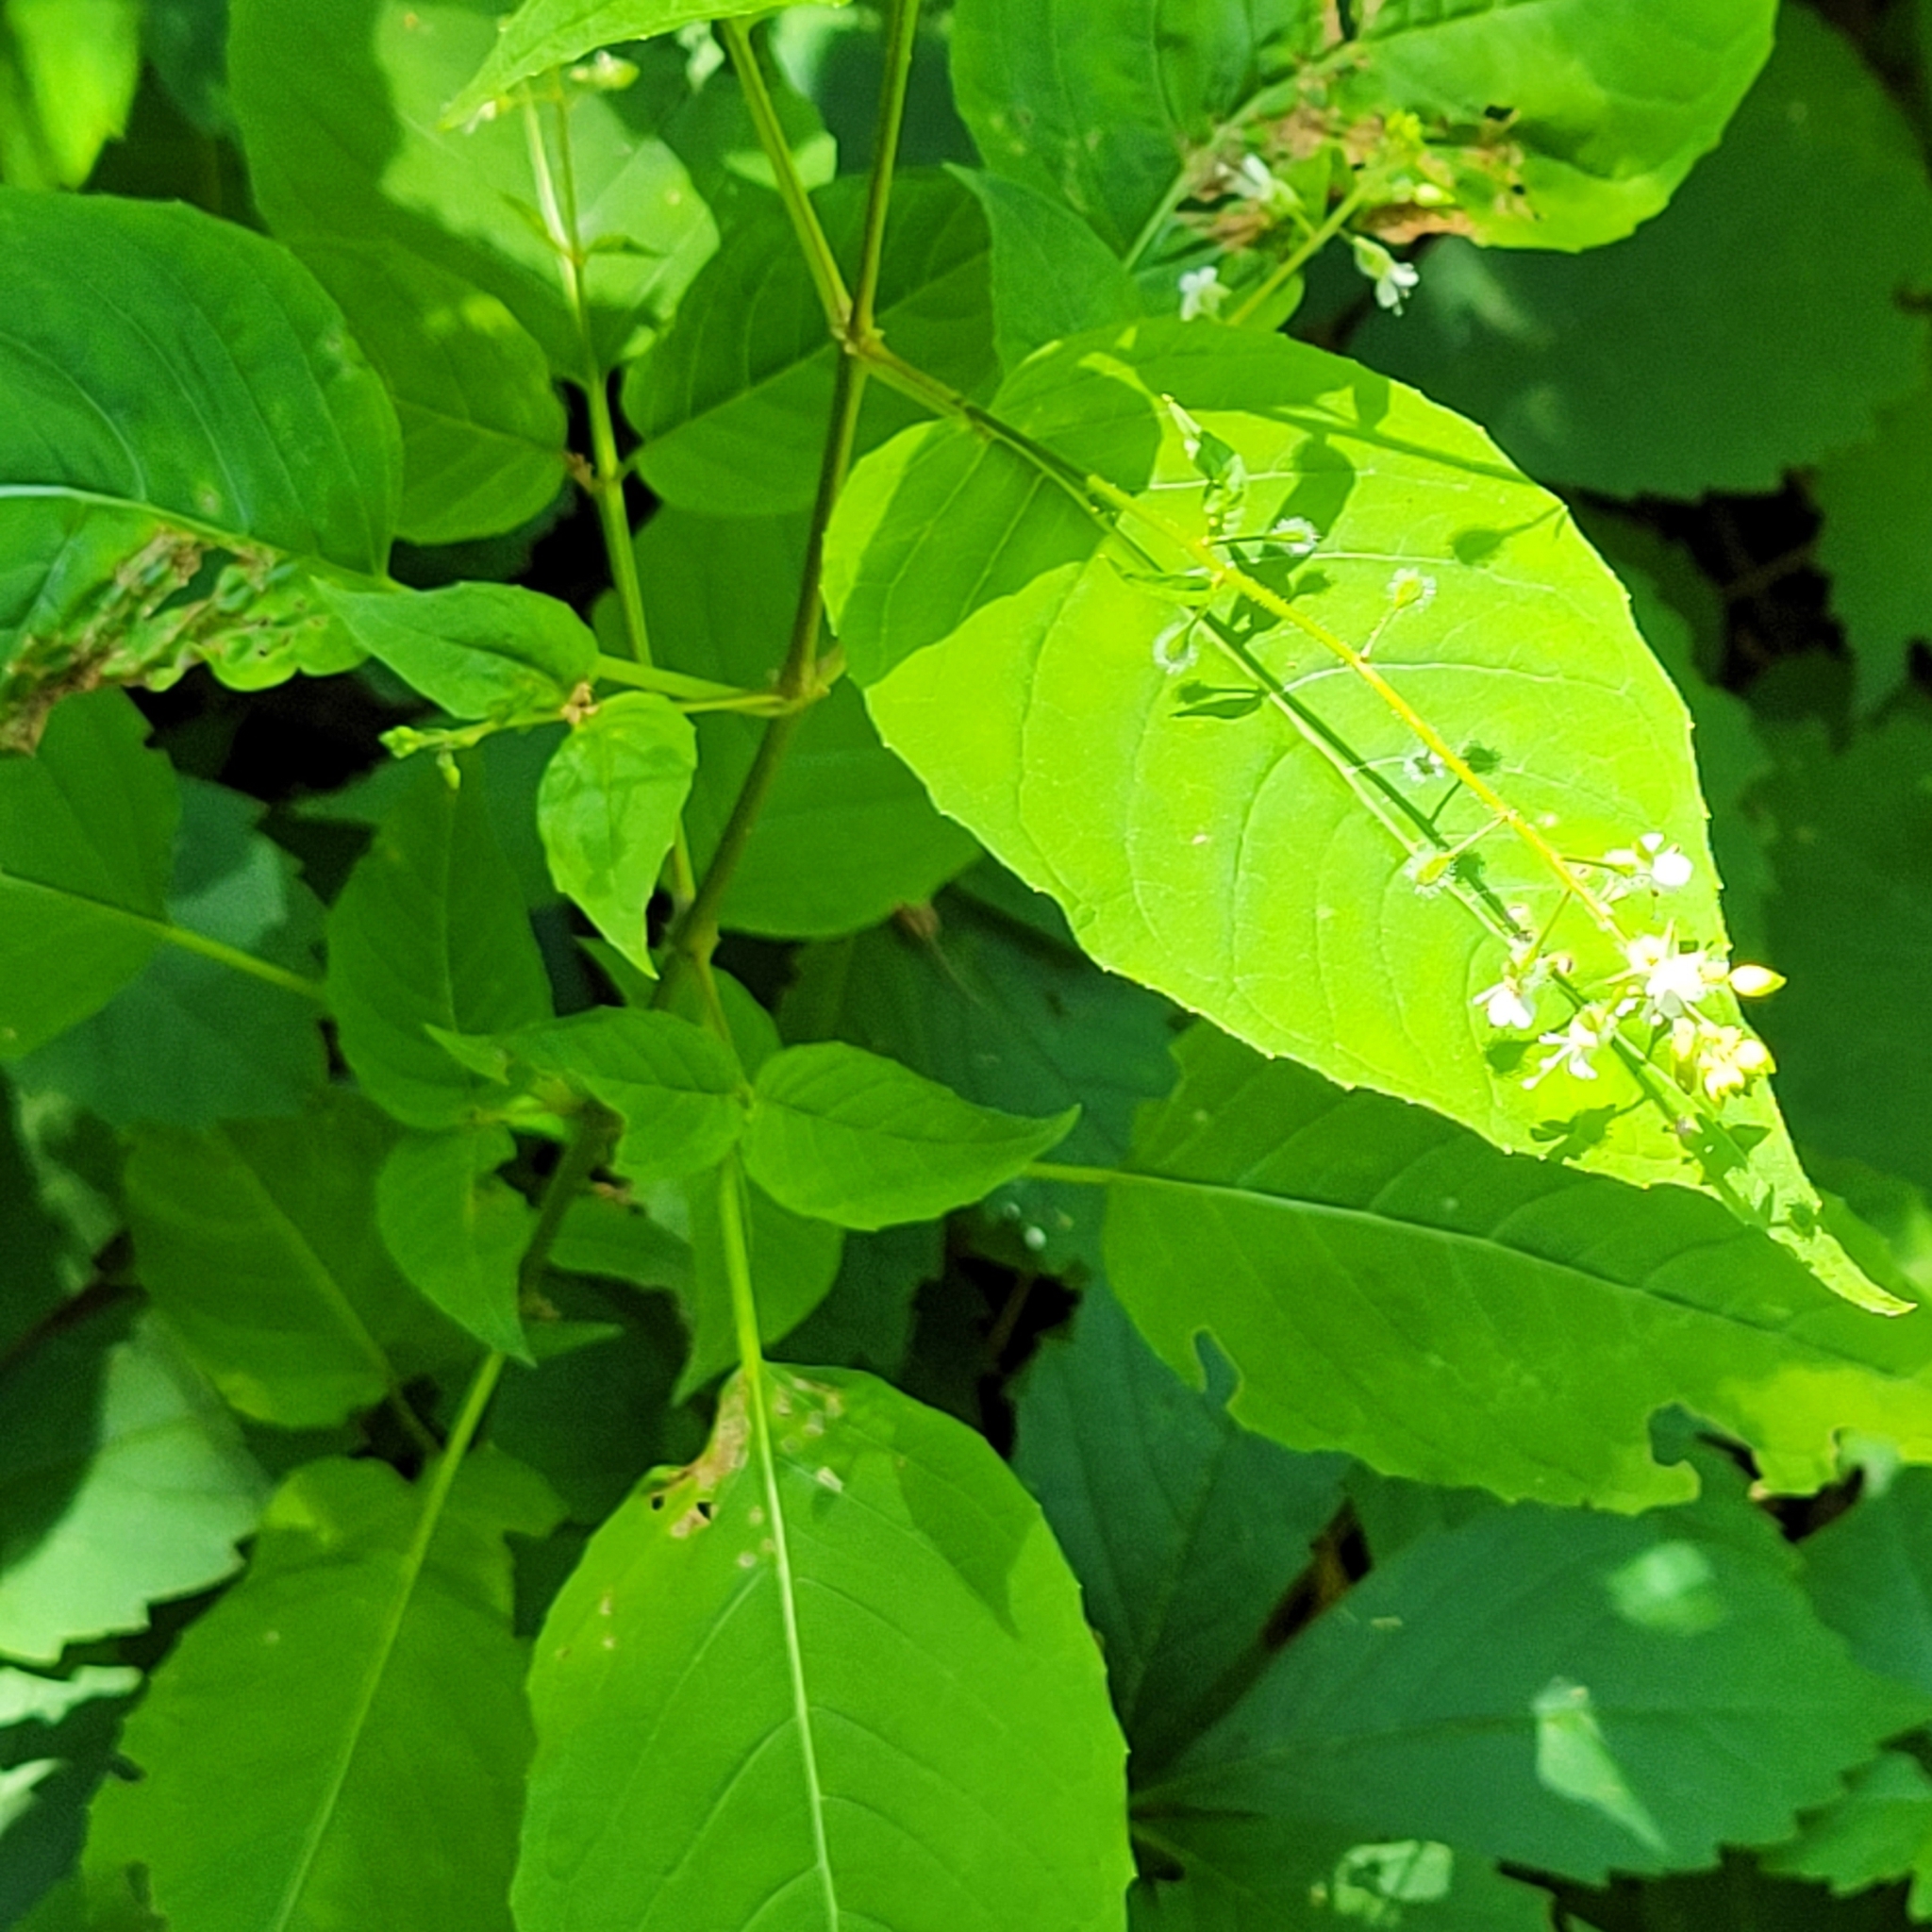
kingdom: Plantae
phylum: Tracheophyta
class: Magnoliopsida
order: Myrtales
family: Onagraceae
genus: Circaea
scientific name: Circaea canadensis
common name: Broad-leaved enchanter's nightshade
